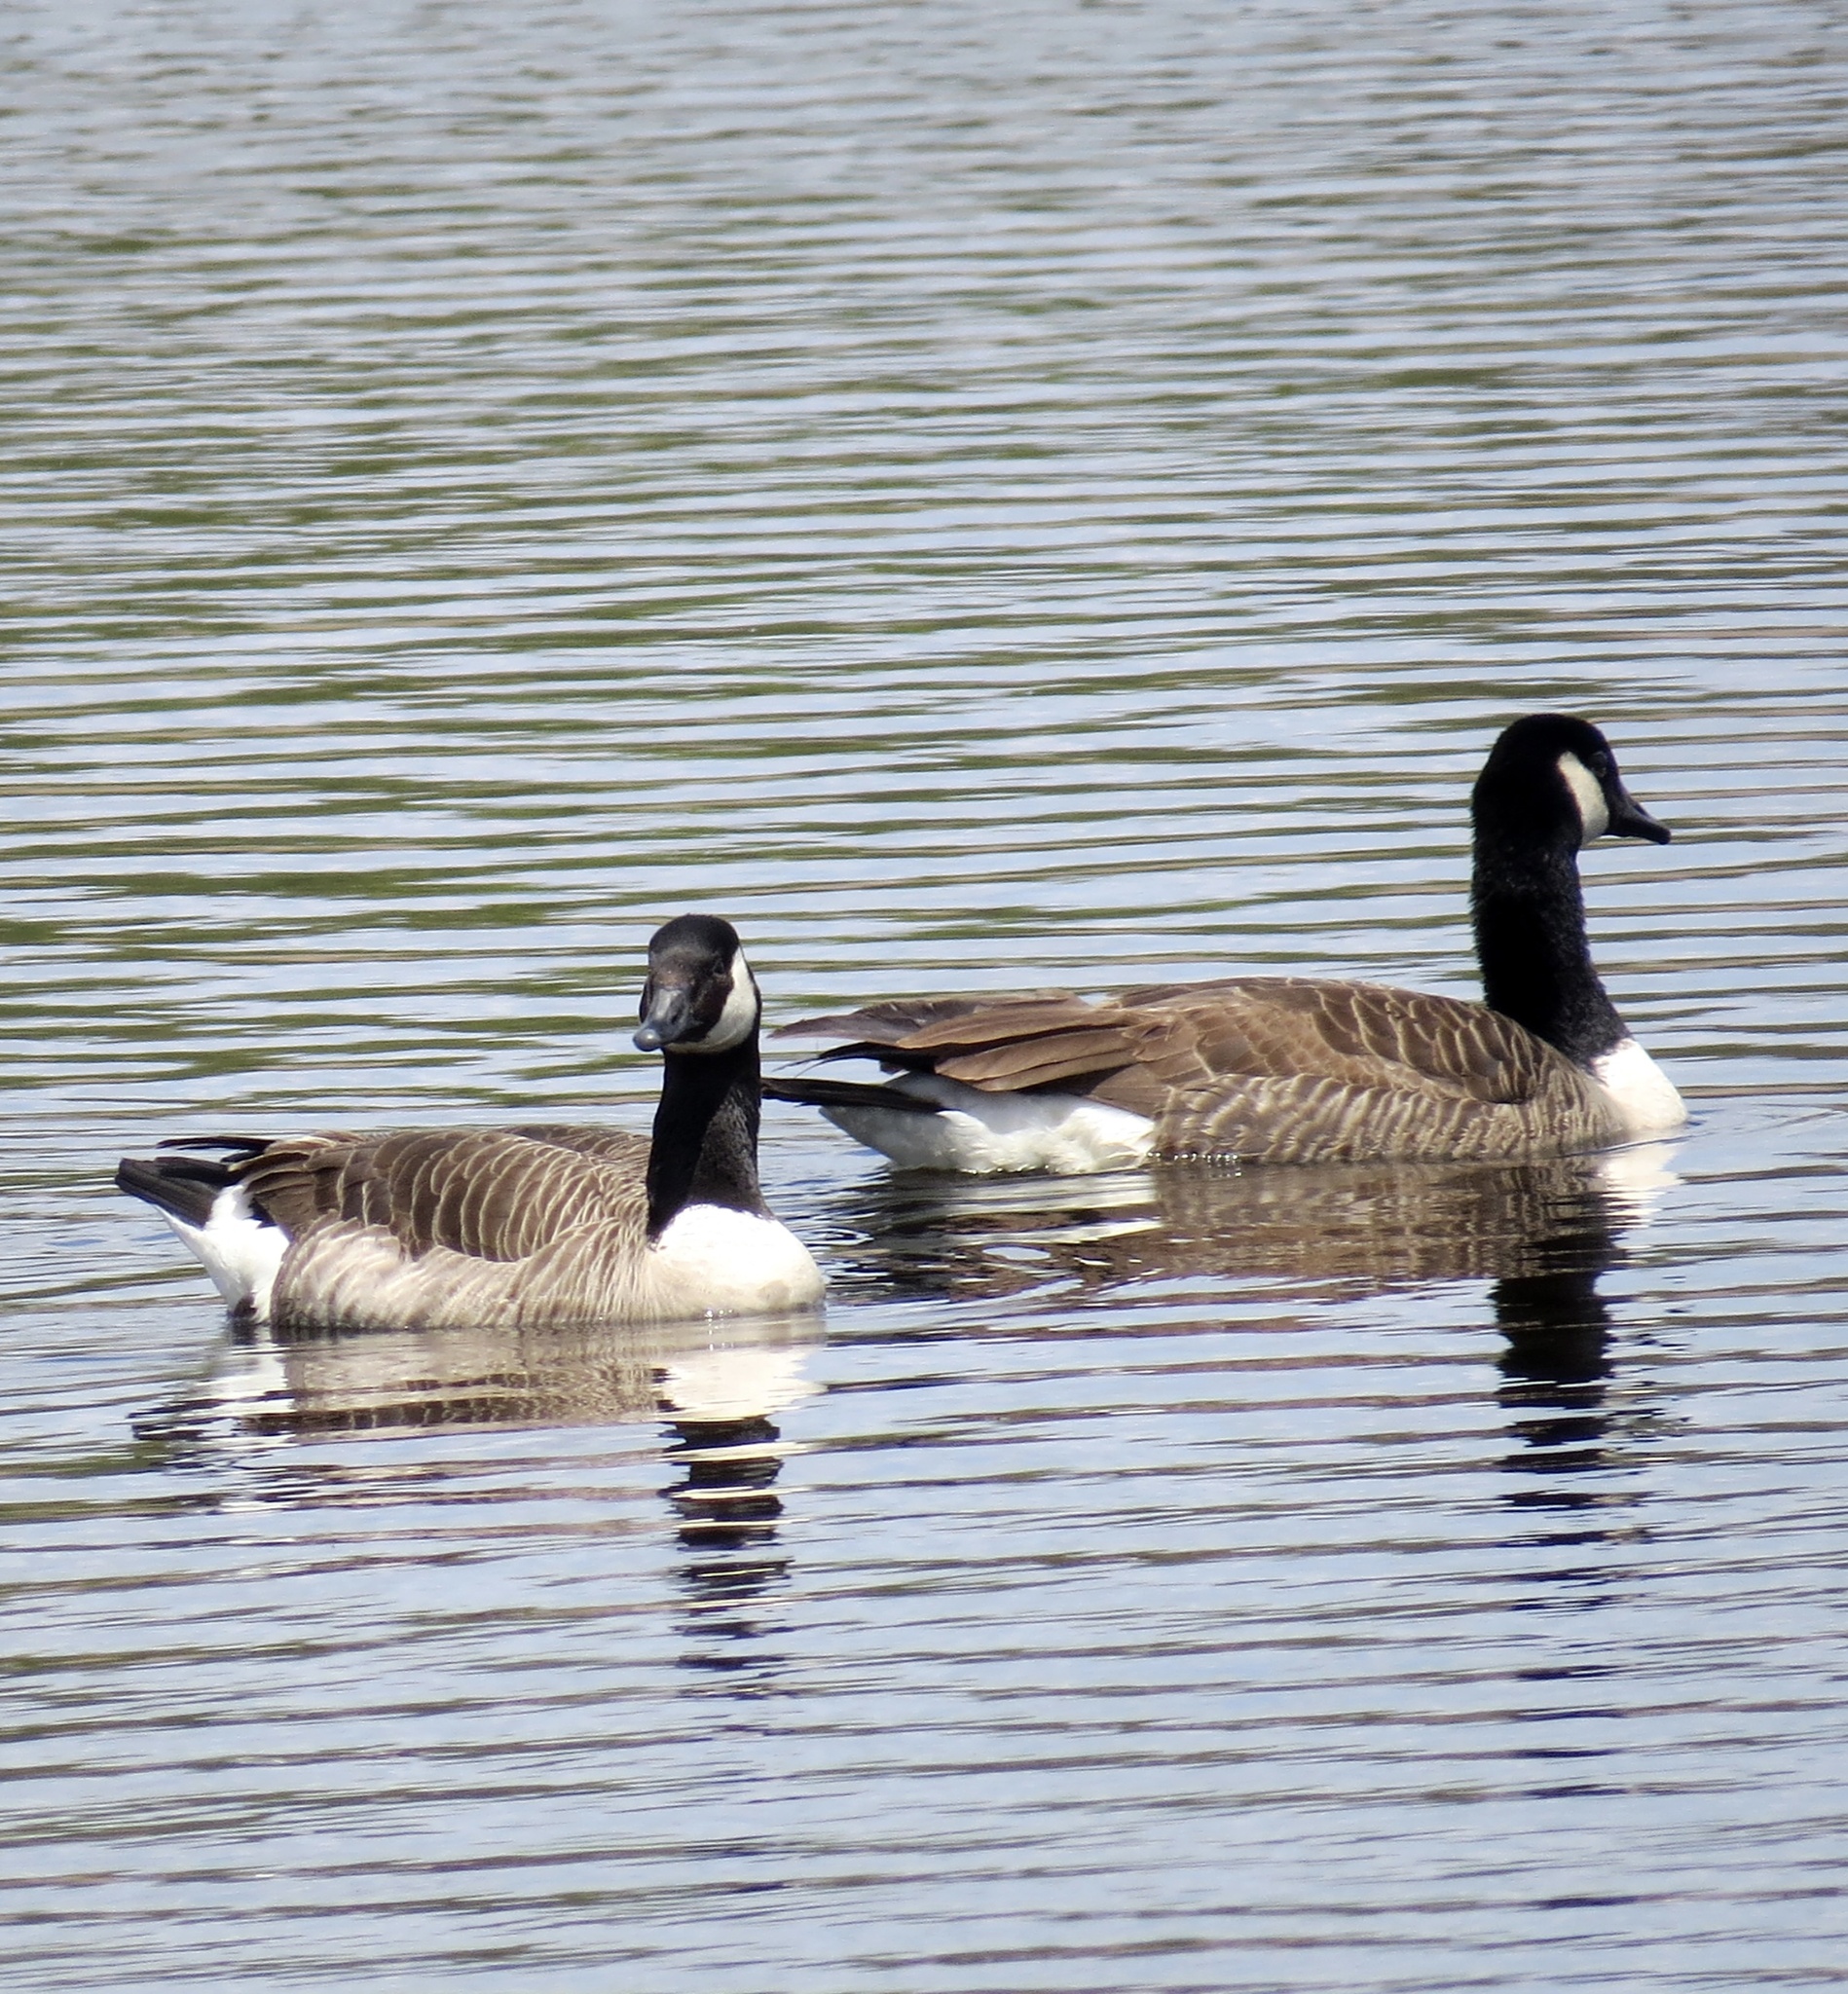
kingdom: Animalia
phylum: Chordata
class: Aves
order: Anseriformes
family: Anatidae
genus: Branta
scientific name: Branta canadensis
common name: Canada goose
